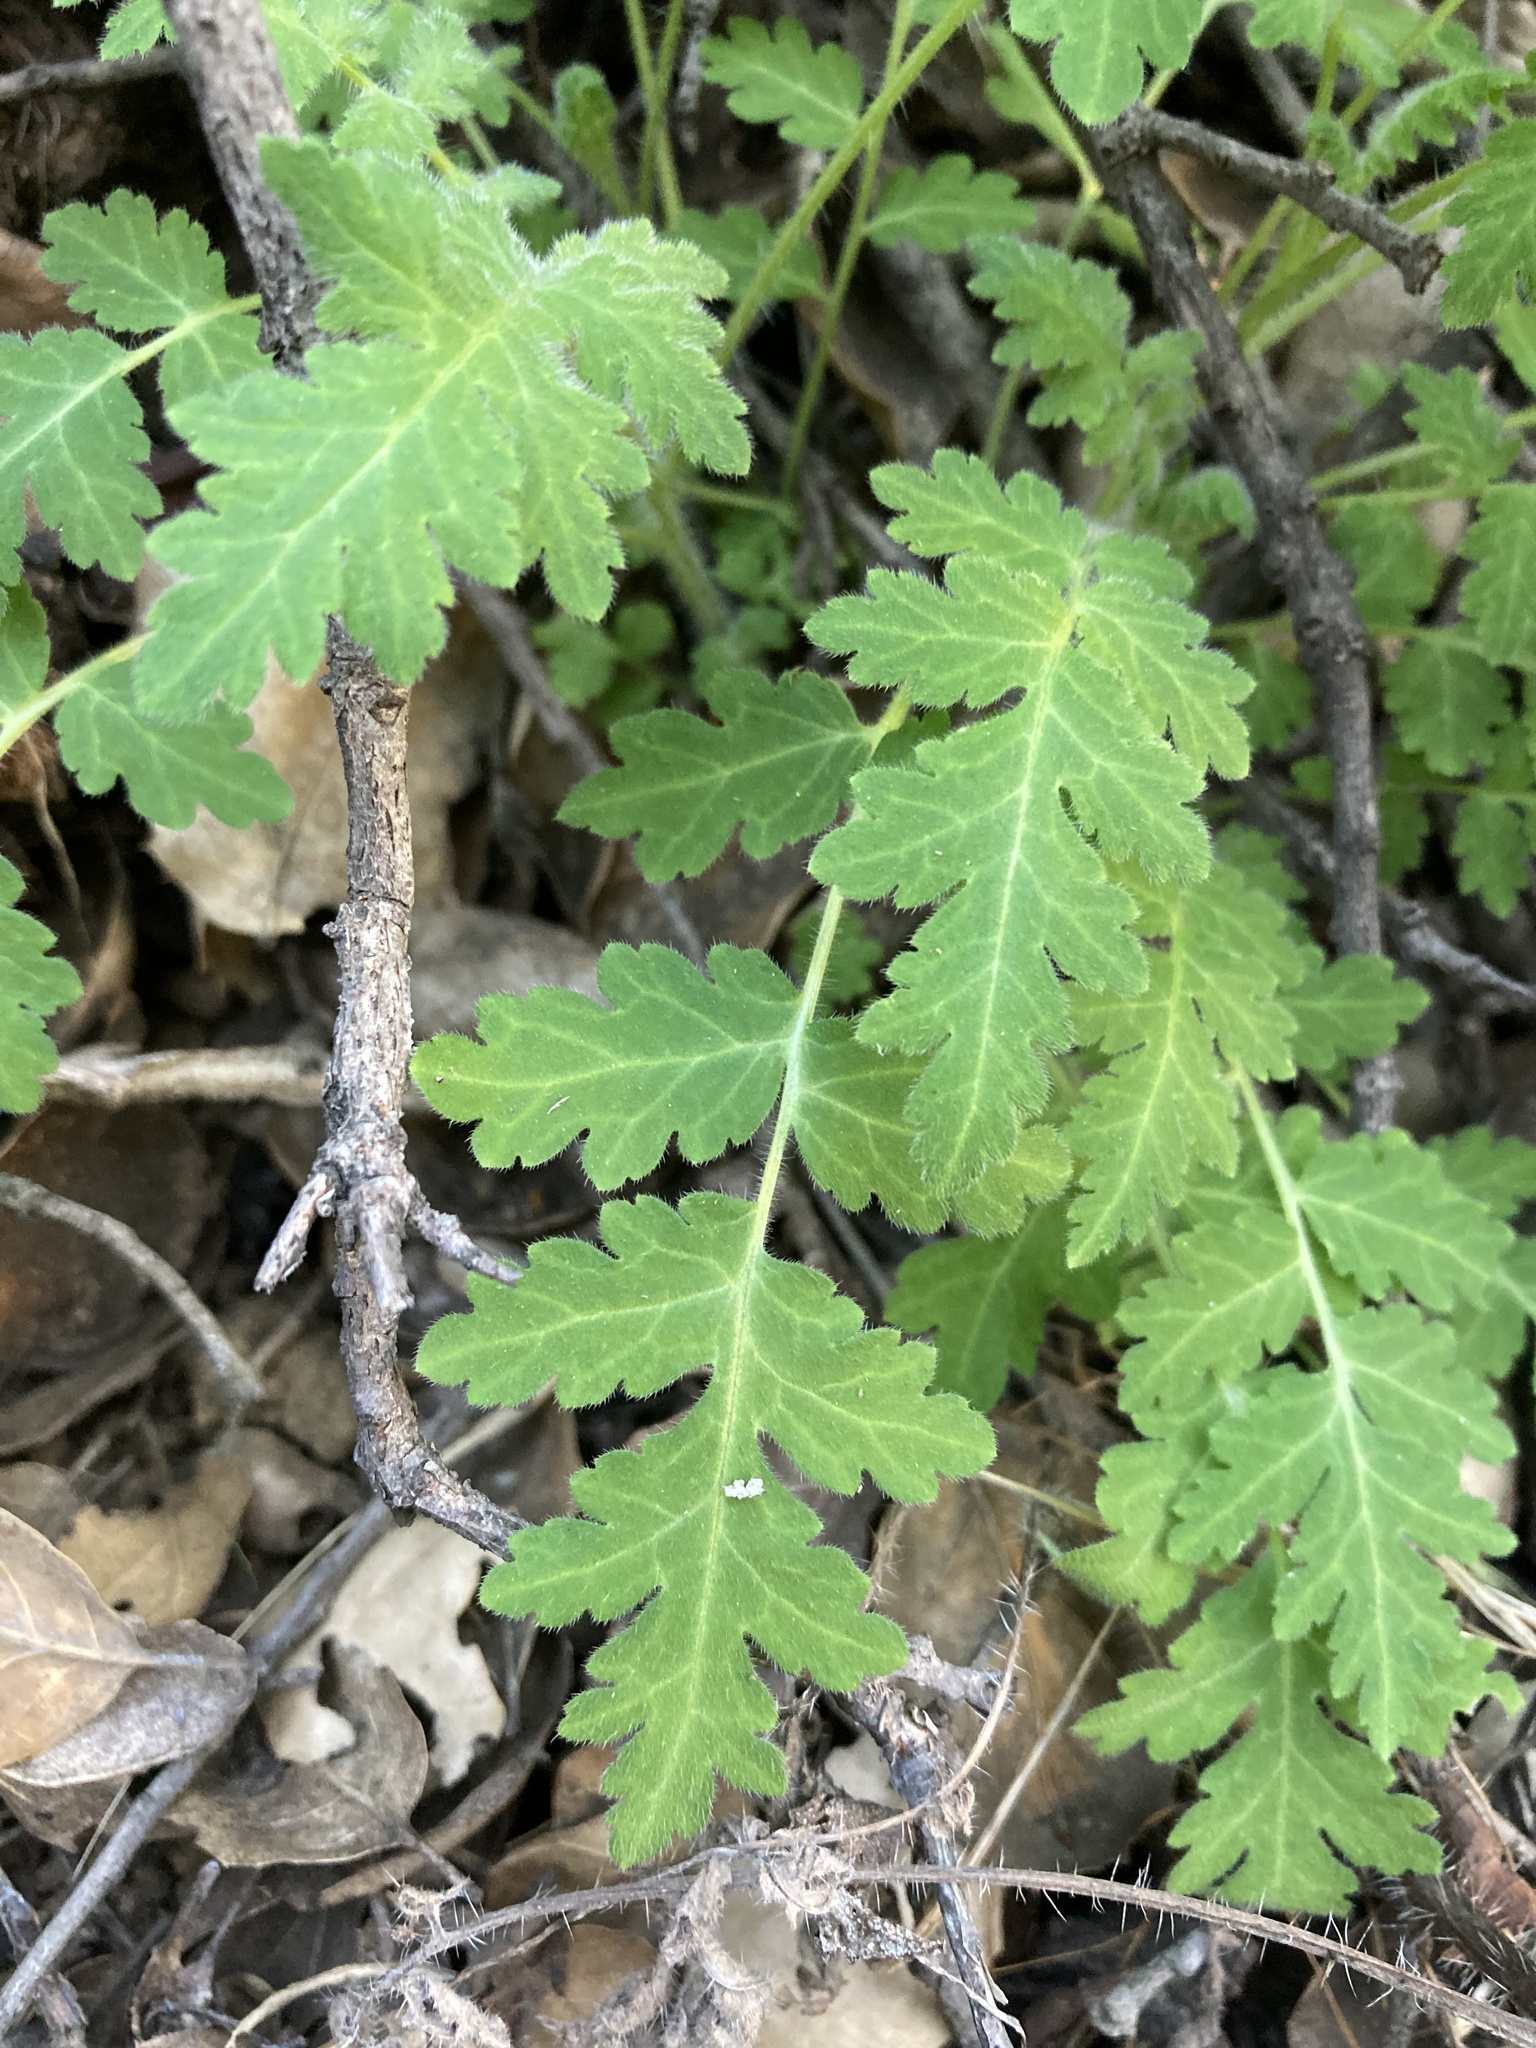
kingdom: Plantae
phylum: Tracheophyta
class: Magnoliopsida
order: Boraginales
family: Hydrophyllaceae
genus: Phacelia
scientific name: Phacelia ramosissima
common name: Branching phacelia
